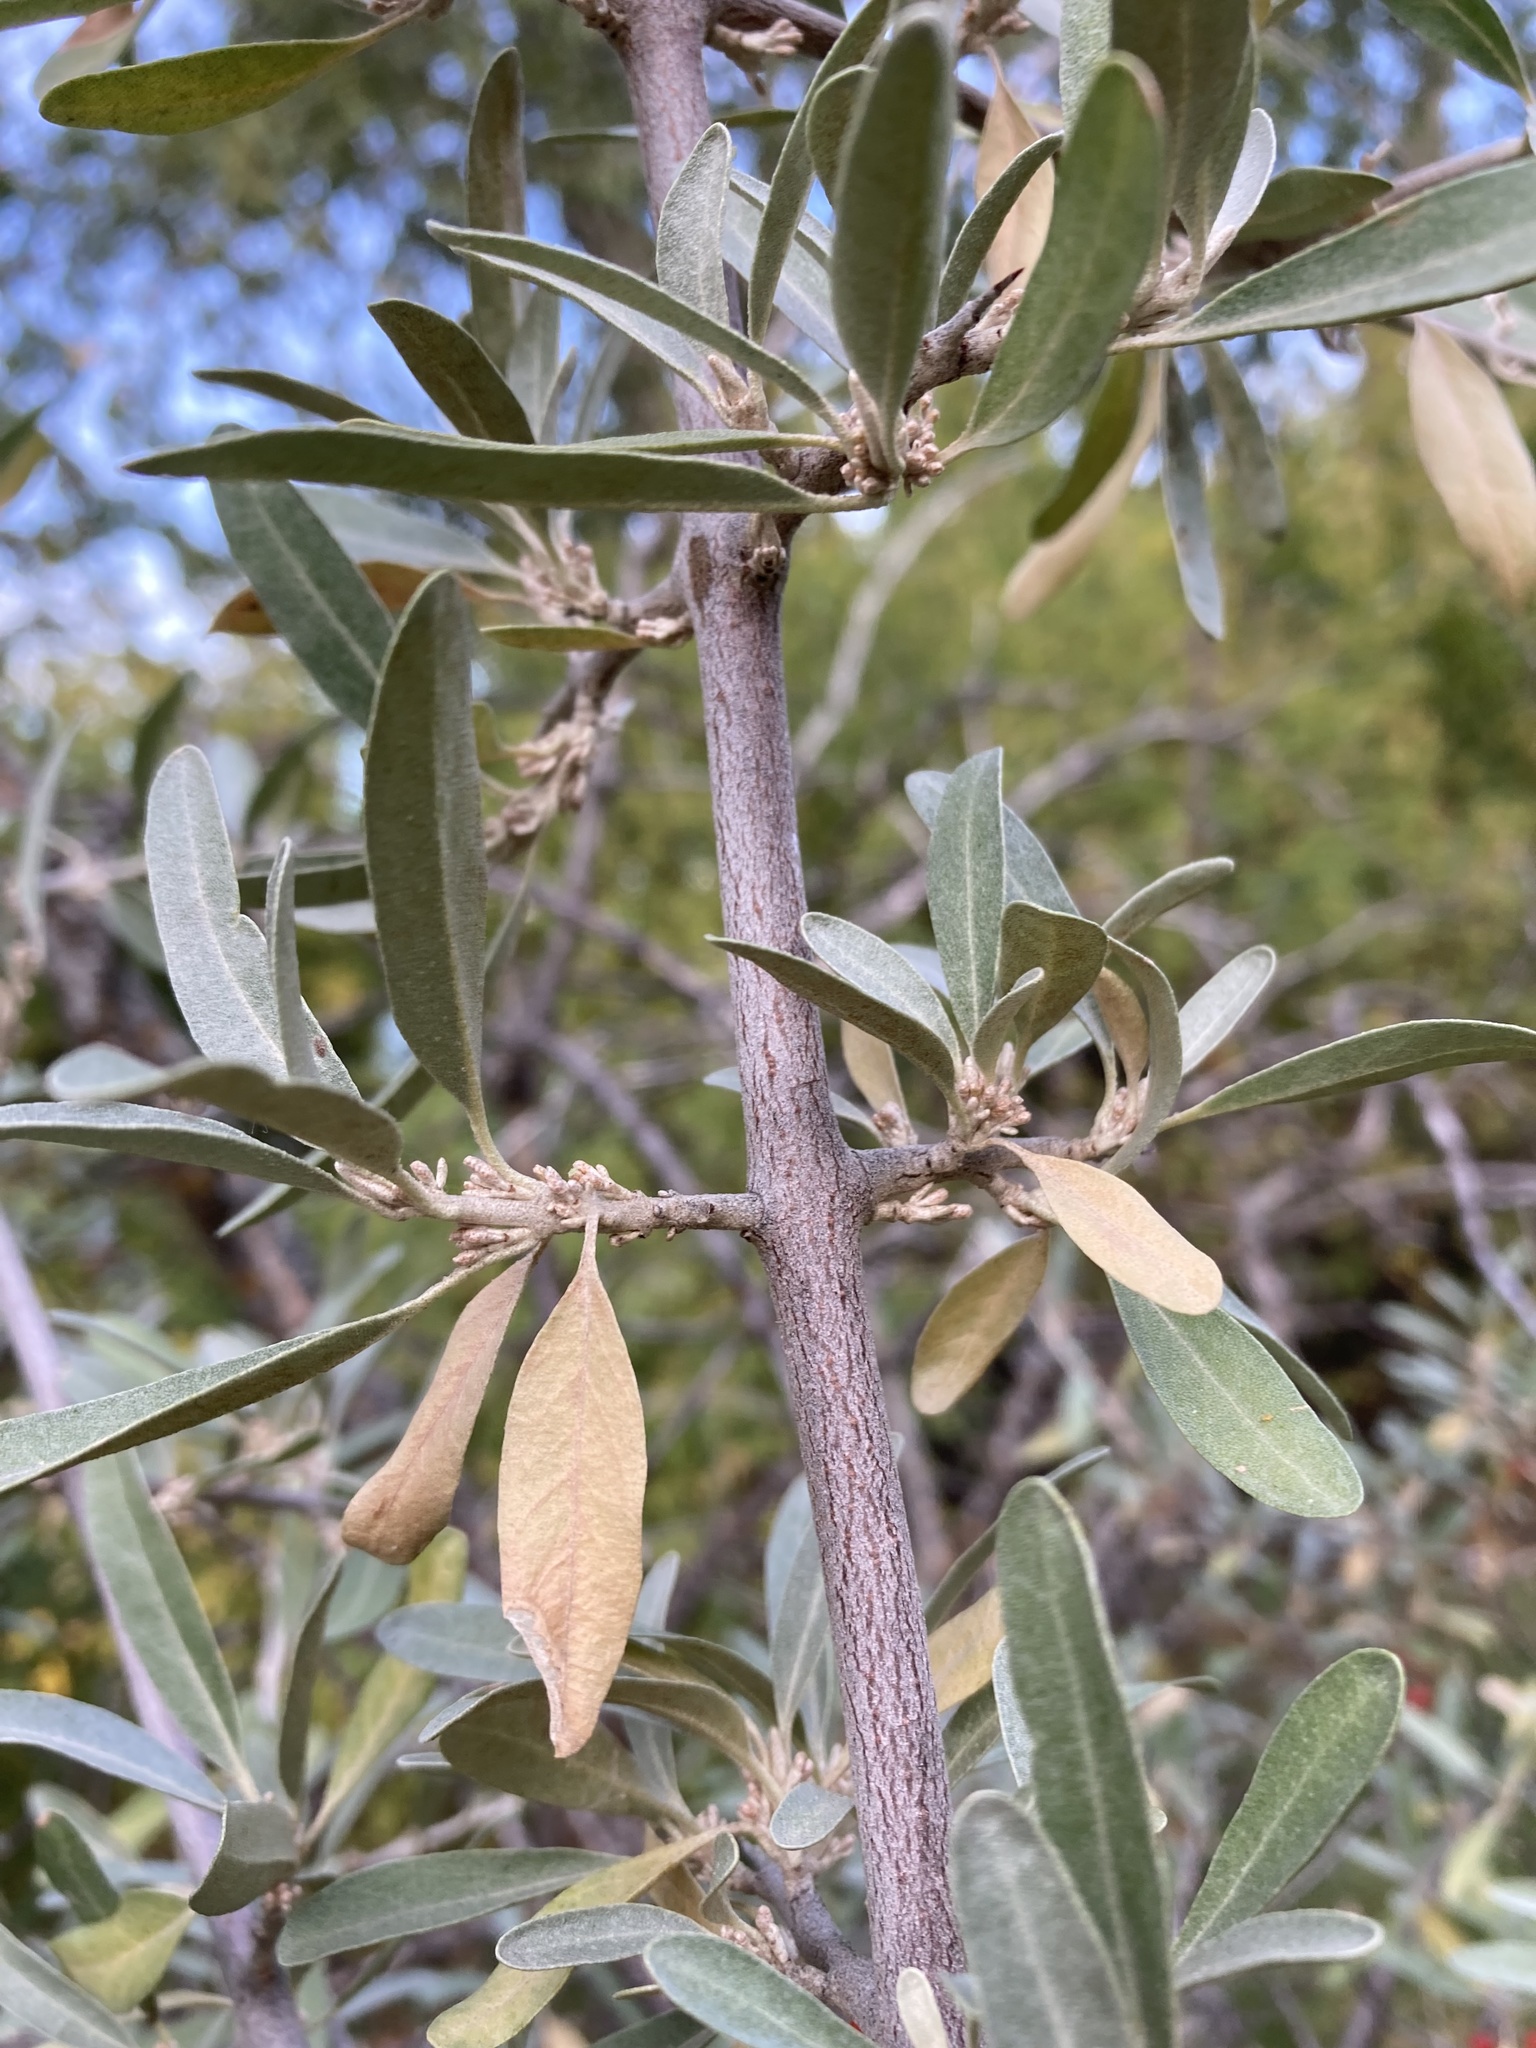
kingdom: Plantae
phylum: Tracheophyta
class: Magnoliopsida
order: Rosales
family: Elaeagnaceae
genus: Shepherdia
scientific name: Shepherdia argentea
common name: Silver buffaloberry
